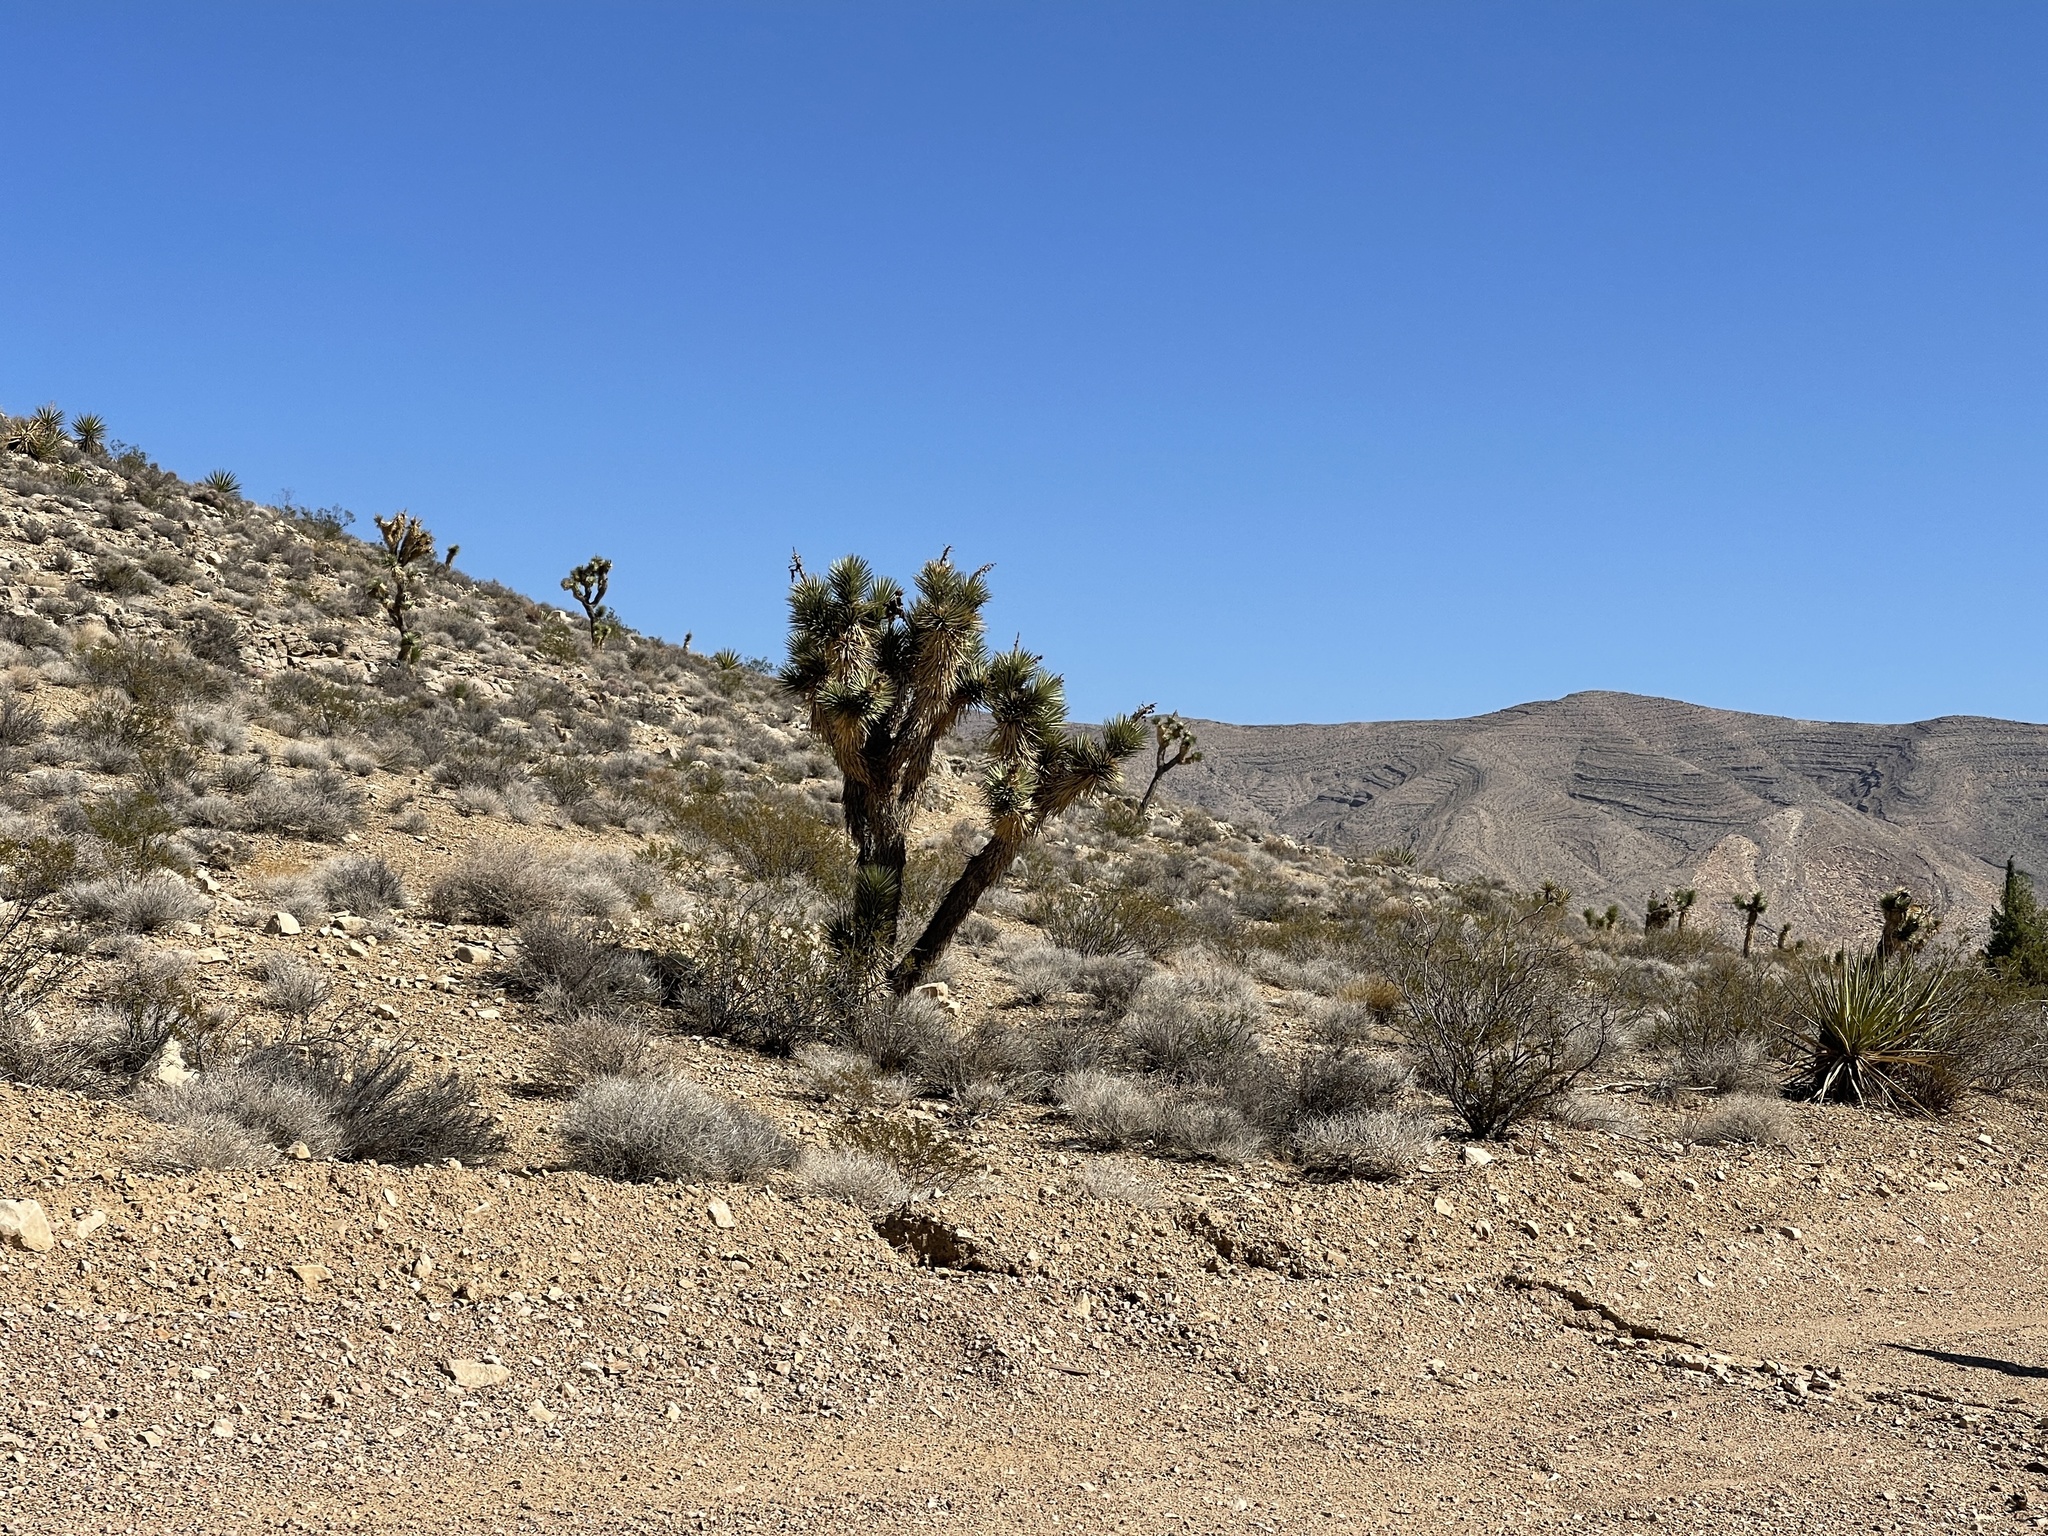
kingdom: Plantae
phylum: Tracheophyta
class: Liliopsida
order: Asparagales
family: Asparagaceae
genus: Yucca
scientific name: Yucca brevifolia
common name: Joshua tree
